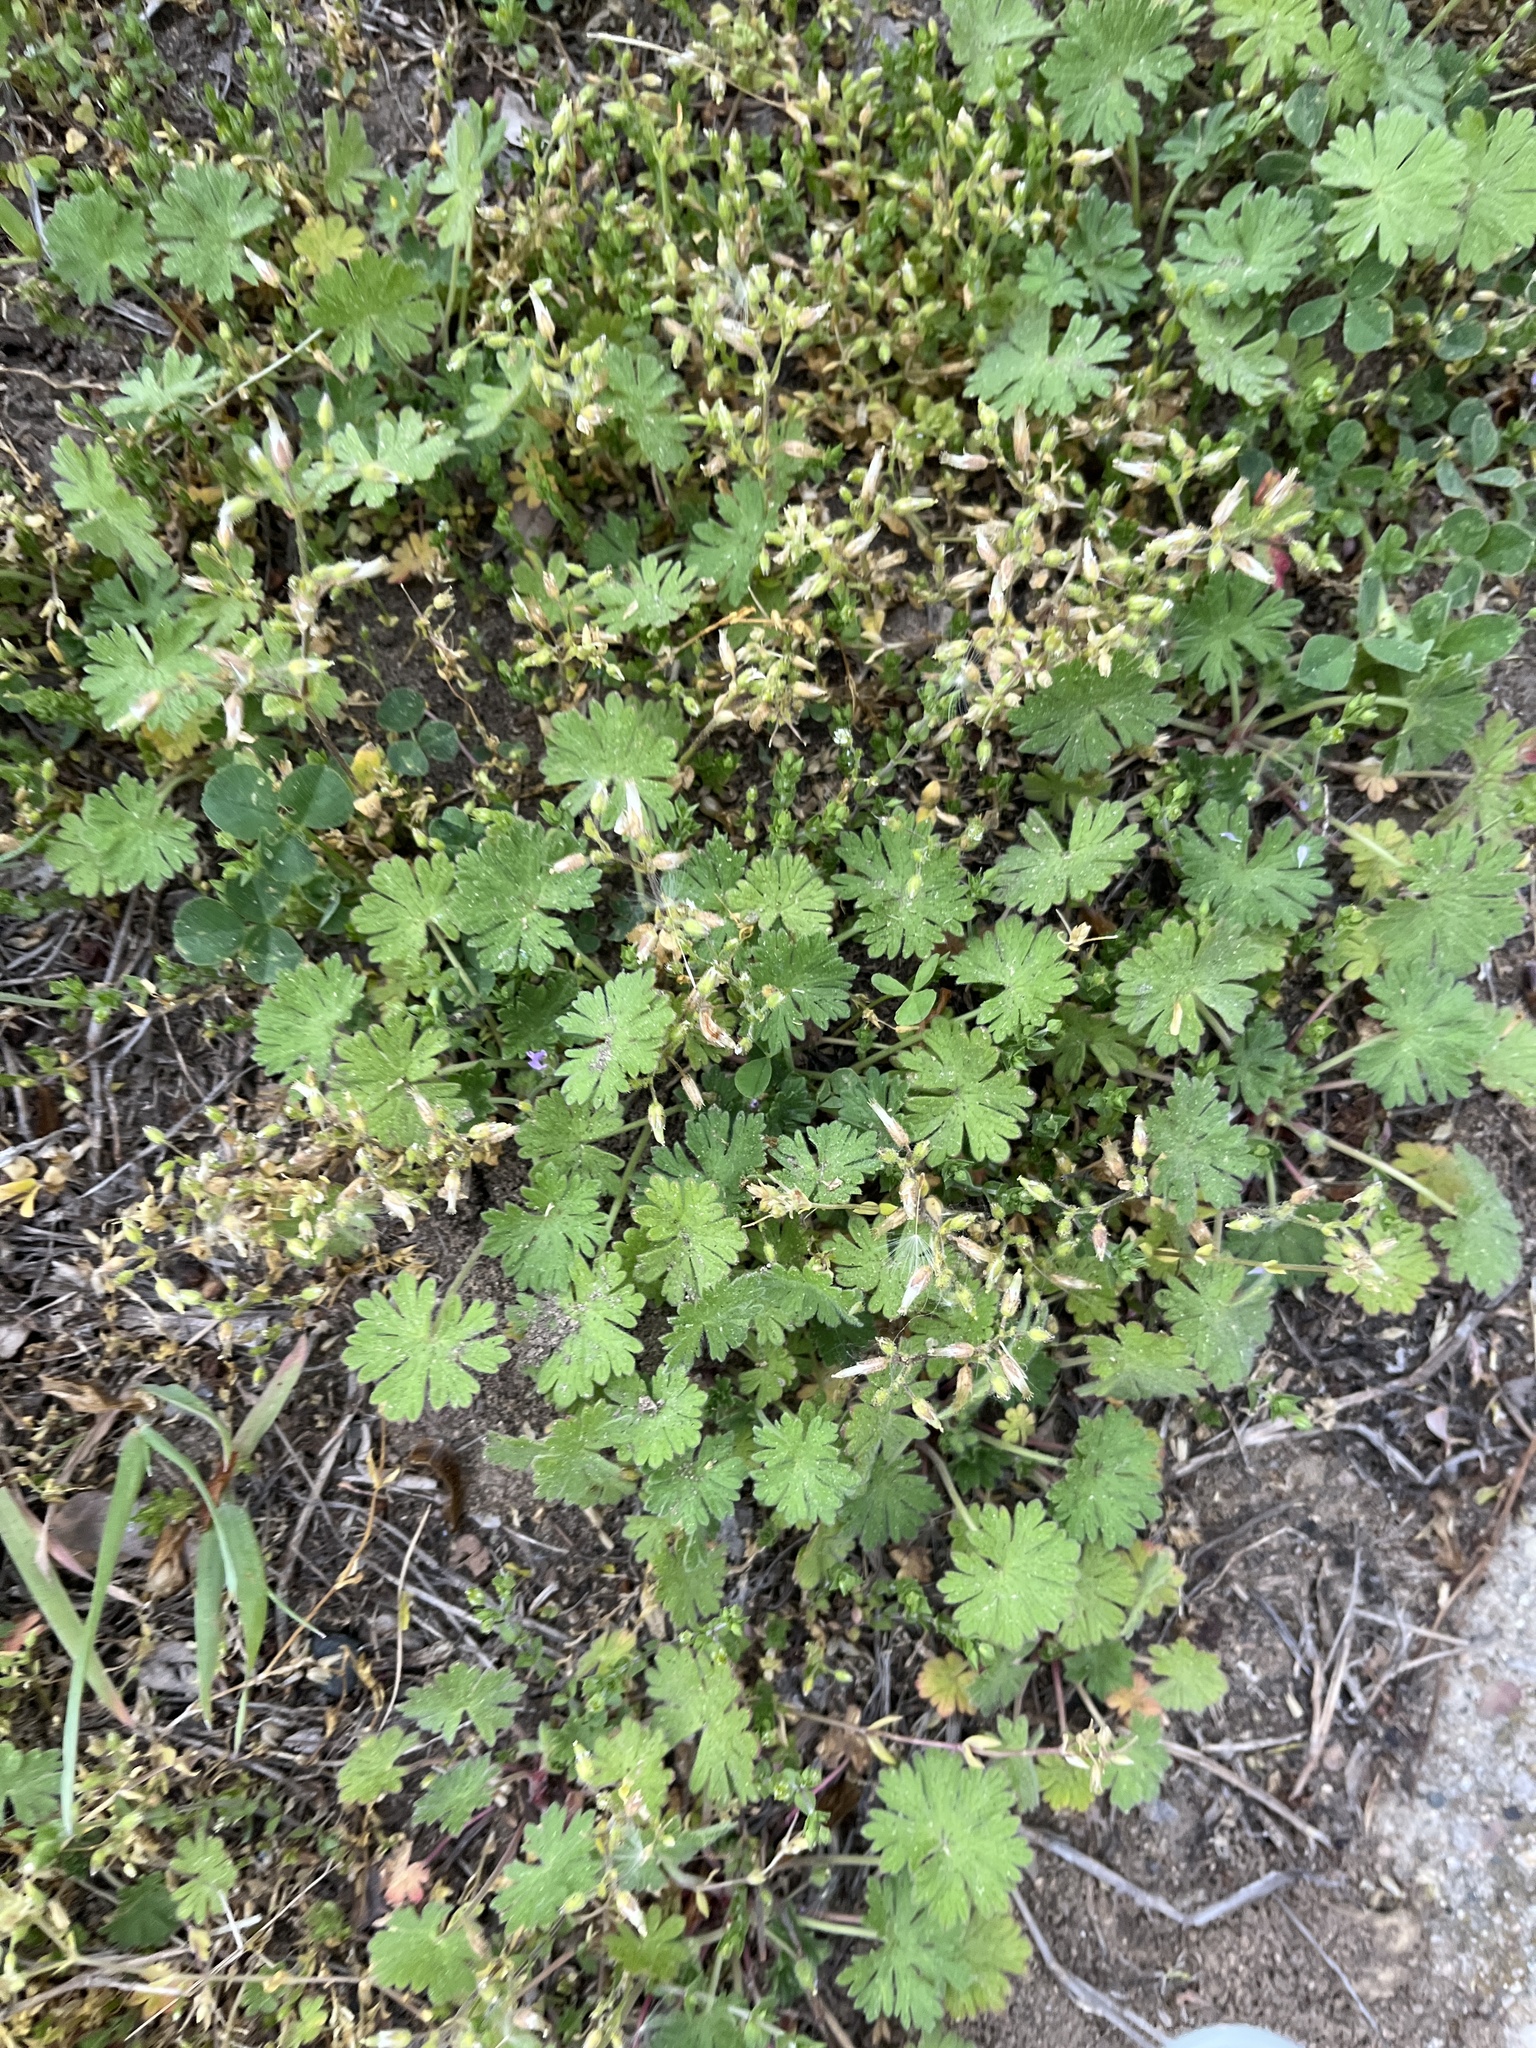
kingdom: Plantae
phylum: Tracheophyta
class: Magnoliopsida
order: Geraniales
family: Geraniaceae
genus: Geranium
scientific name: Geranium molle
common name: Dove's-foot crane's-bill
